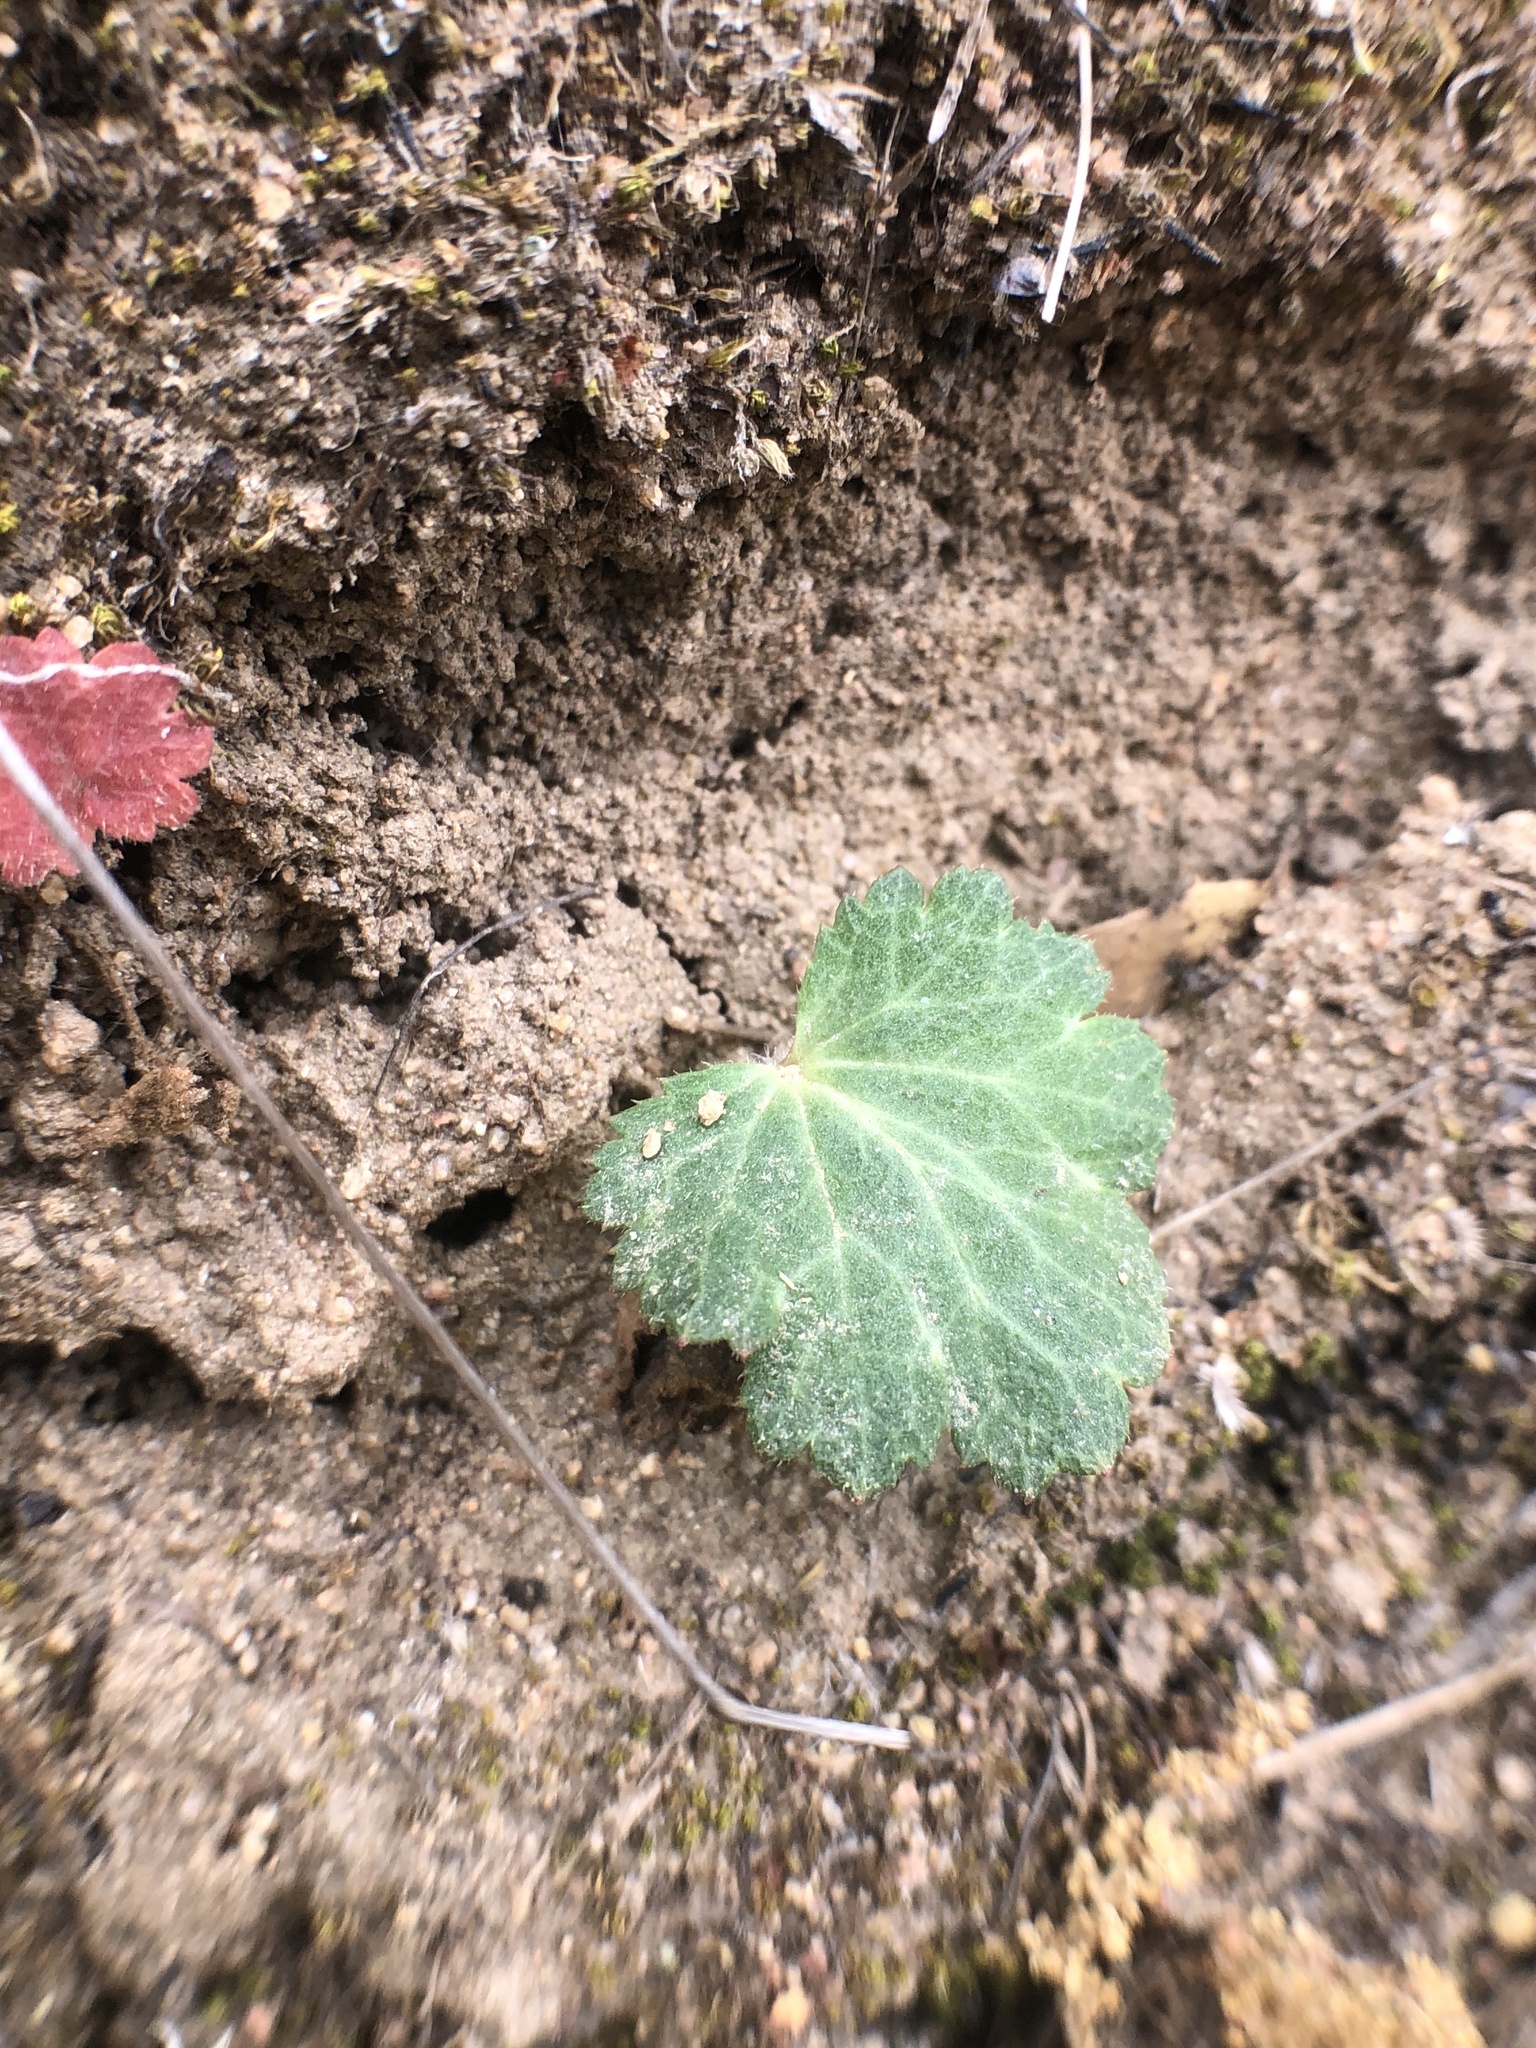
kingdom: Plantae
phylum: Tracheophyta
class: Magnoliopsida
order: Saxifragales
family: Saxifragaceae
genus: Jepsonia
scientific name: Jepsonia parryi
